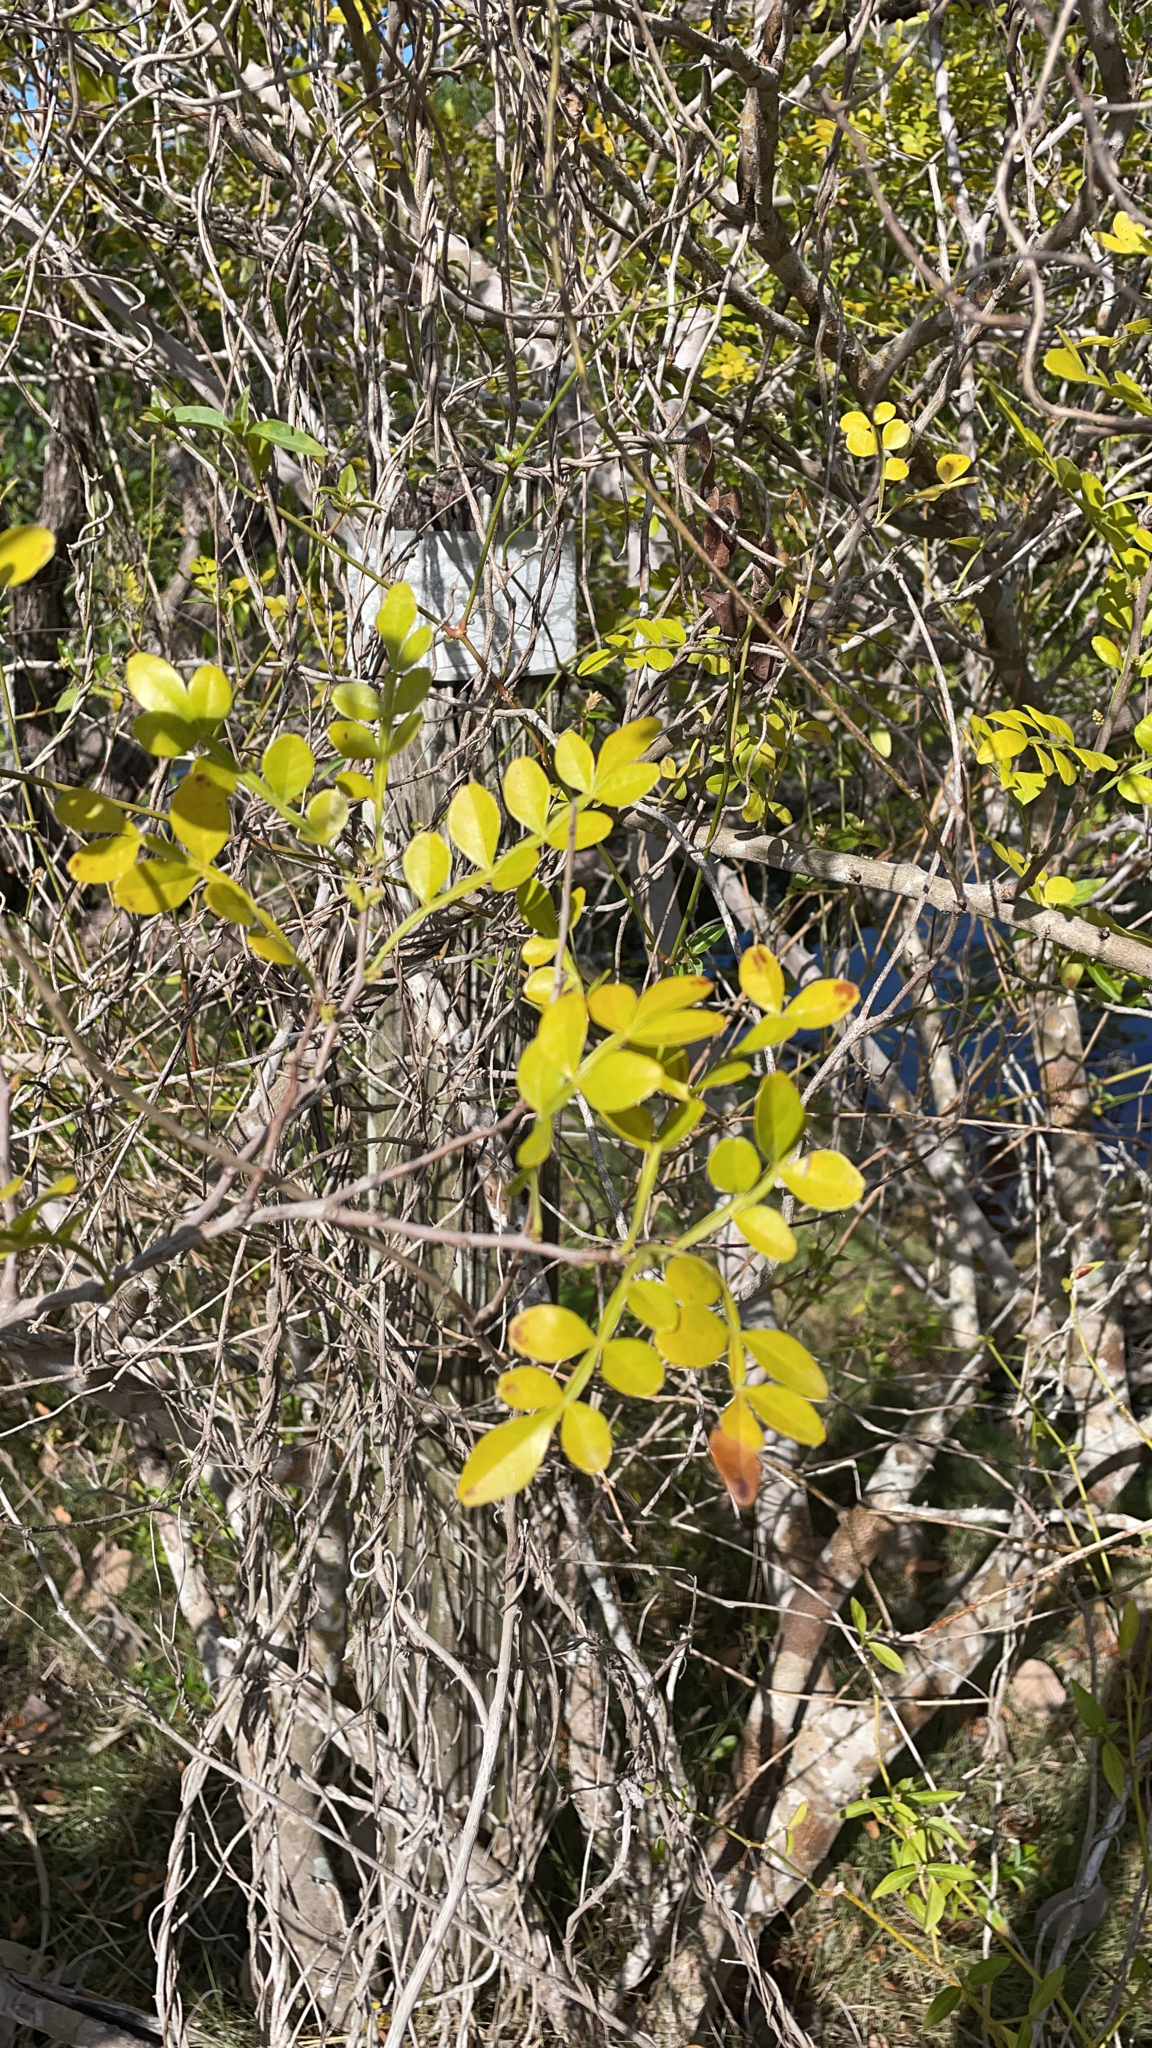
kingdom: Plantae
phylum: Tracheophyta
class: Magnoliopsida
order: Sapindales
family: Rutaceae
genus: Zanthoxylum
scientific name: Zanthoxylum fagara
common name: Lime prickly-ash
